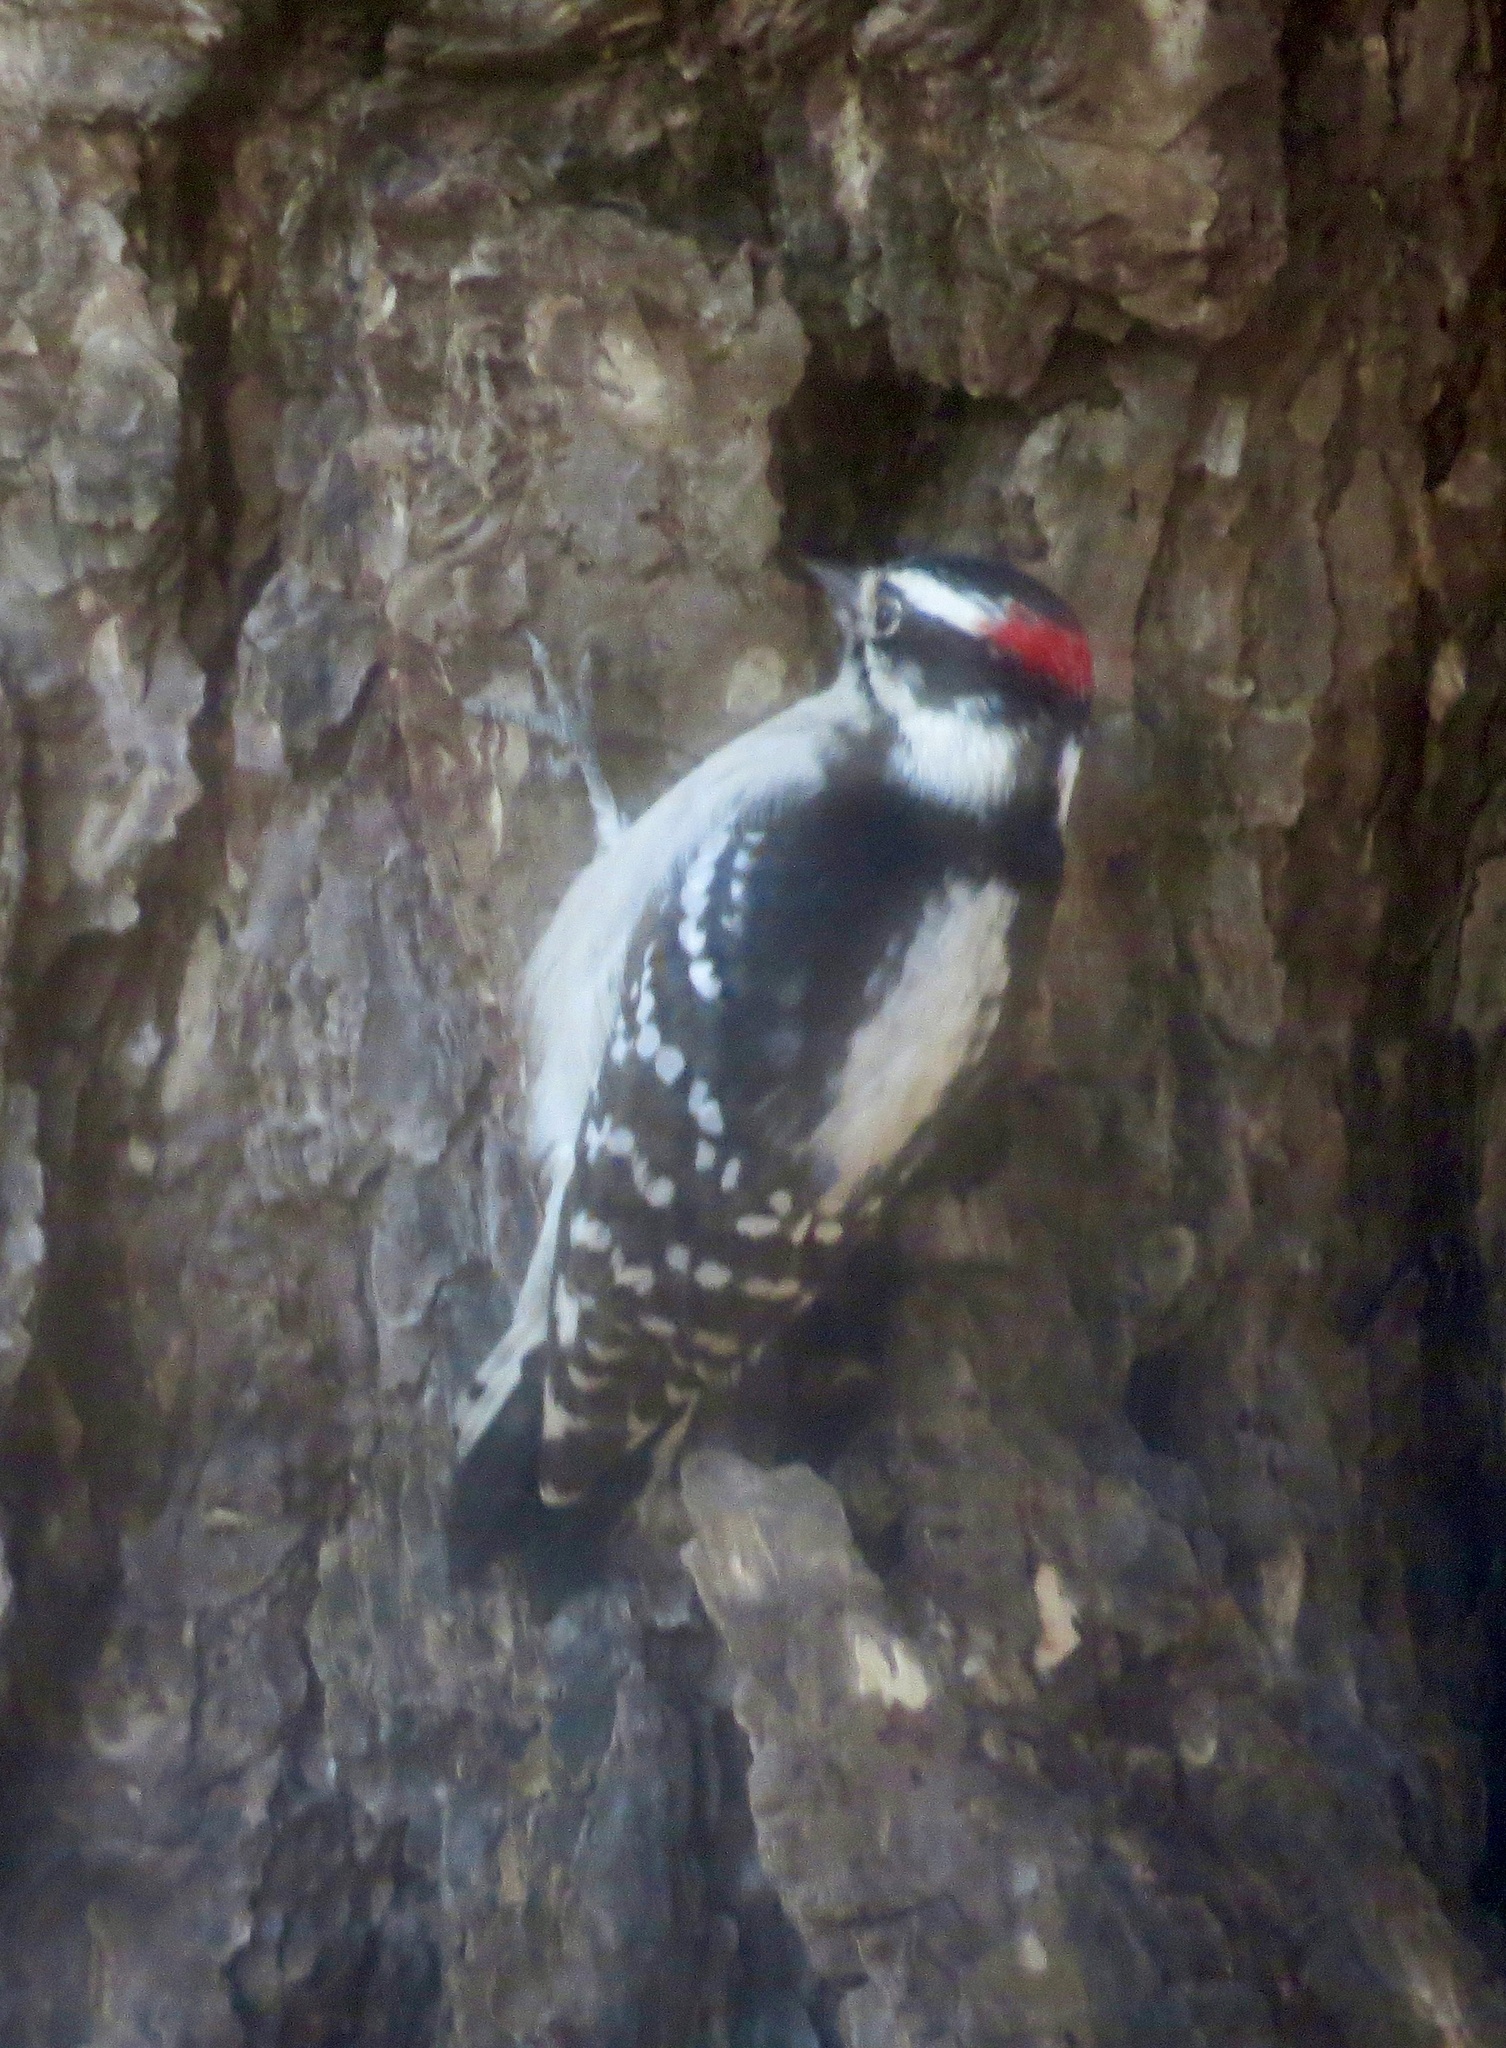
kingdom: Animalia
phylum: Chordata
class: Aves
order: Piciformes
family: Picidae
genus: Dryobates
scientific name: Dryobates pubescens
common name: Downy woodpecker
